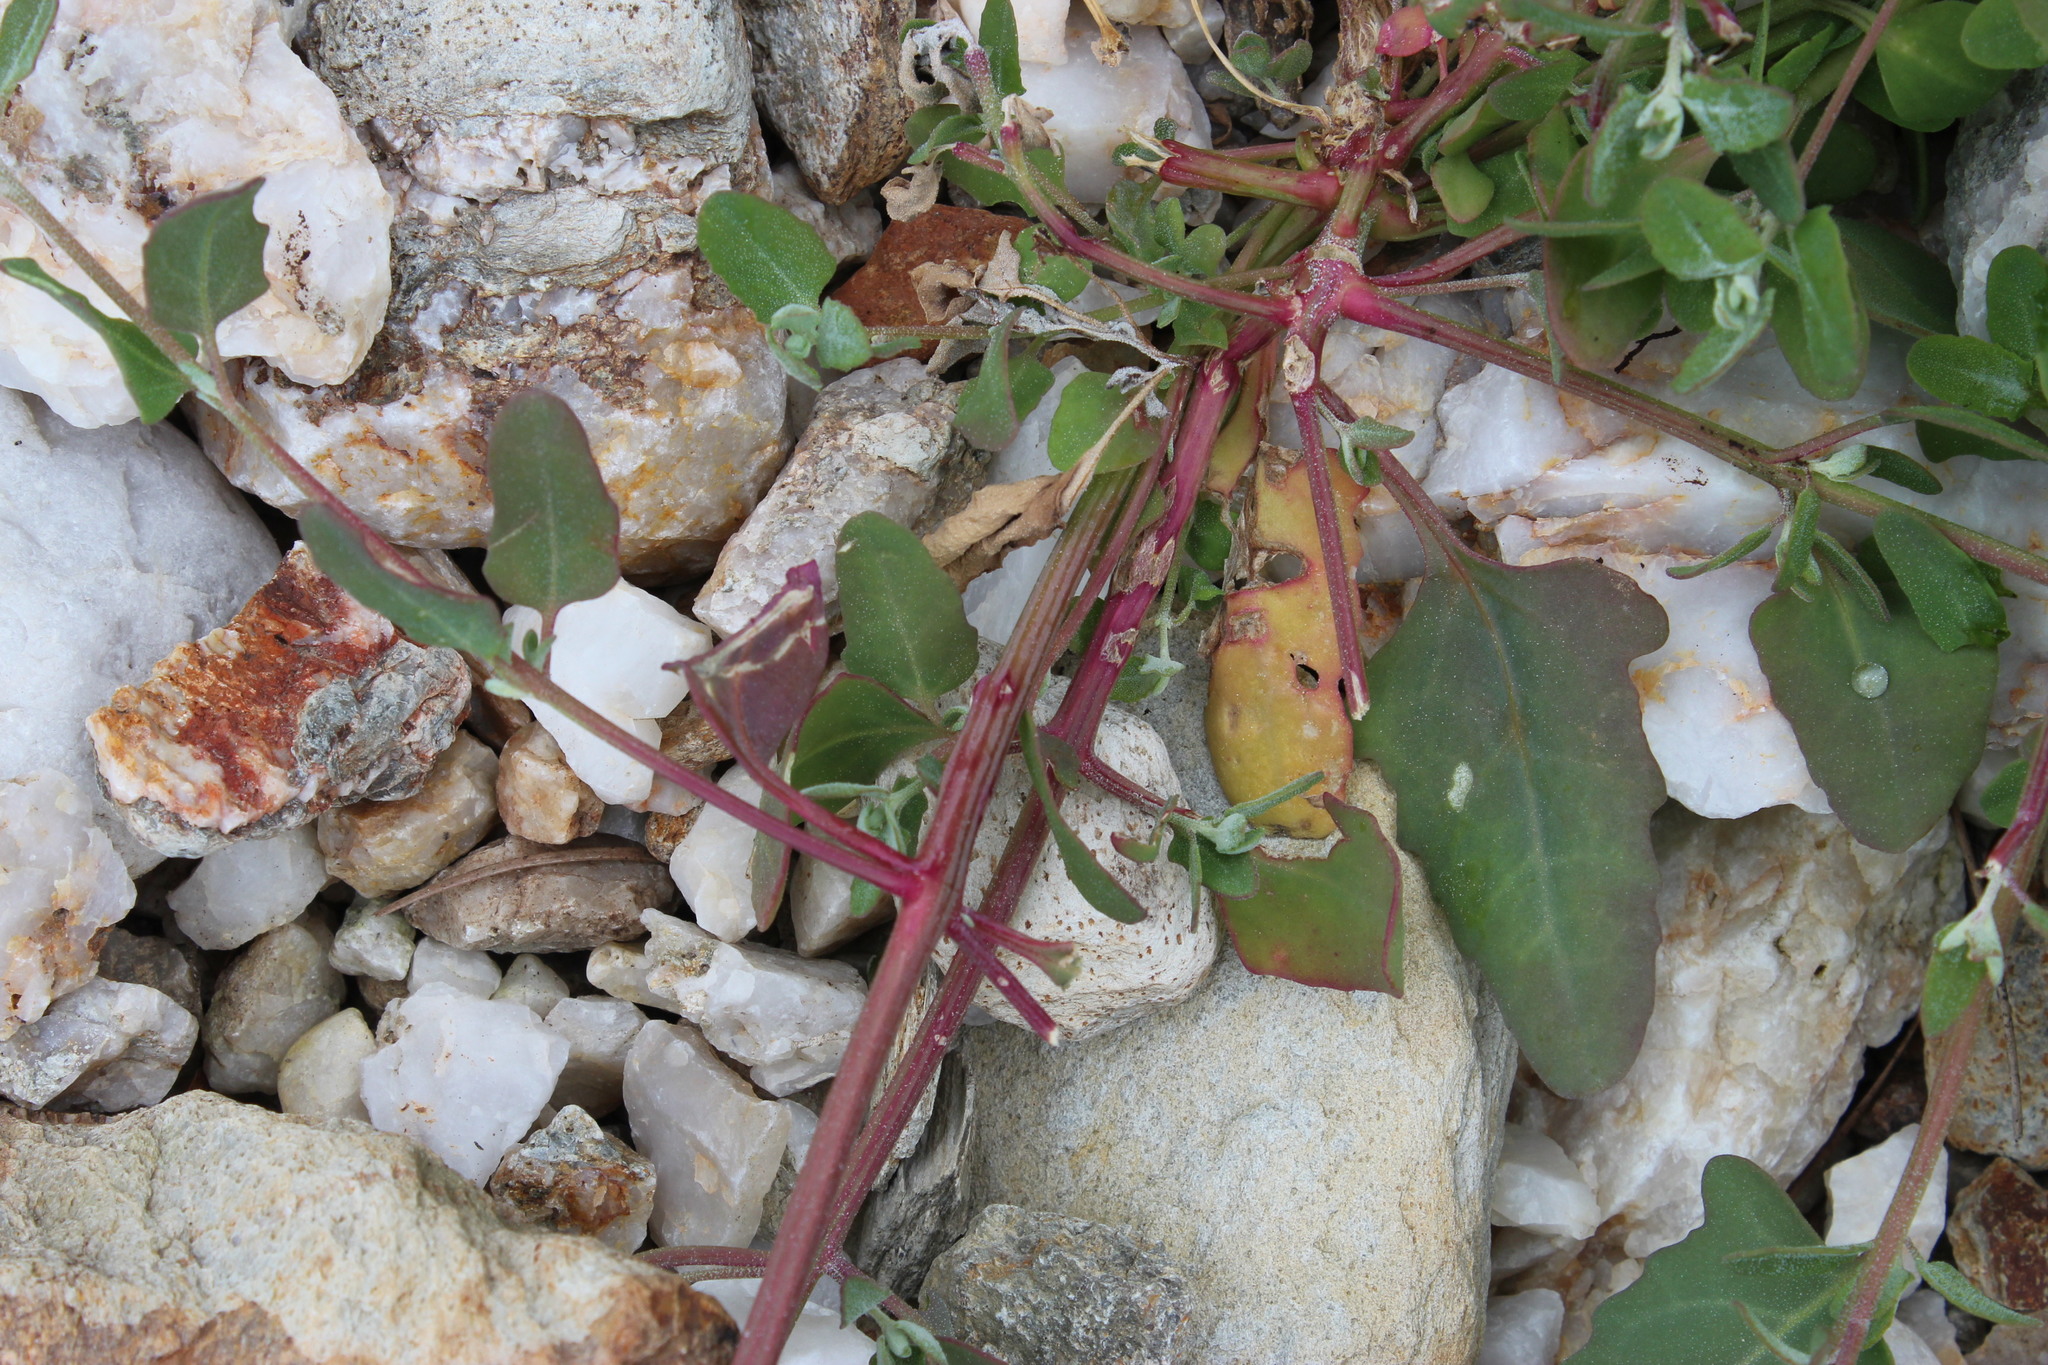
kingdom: Plantae
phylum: Tracheophyta
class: Magnoliopsida
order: Caryophyllales
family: Amaranthaceae
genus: Atriplex
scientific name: Atriplex patula
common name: Common orache
